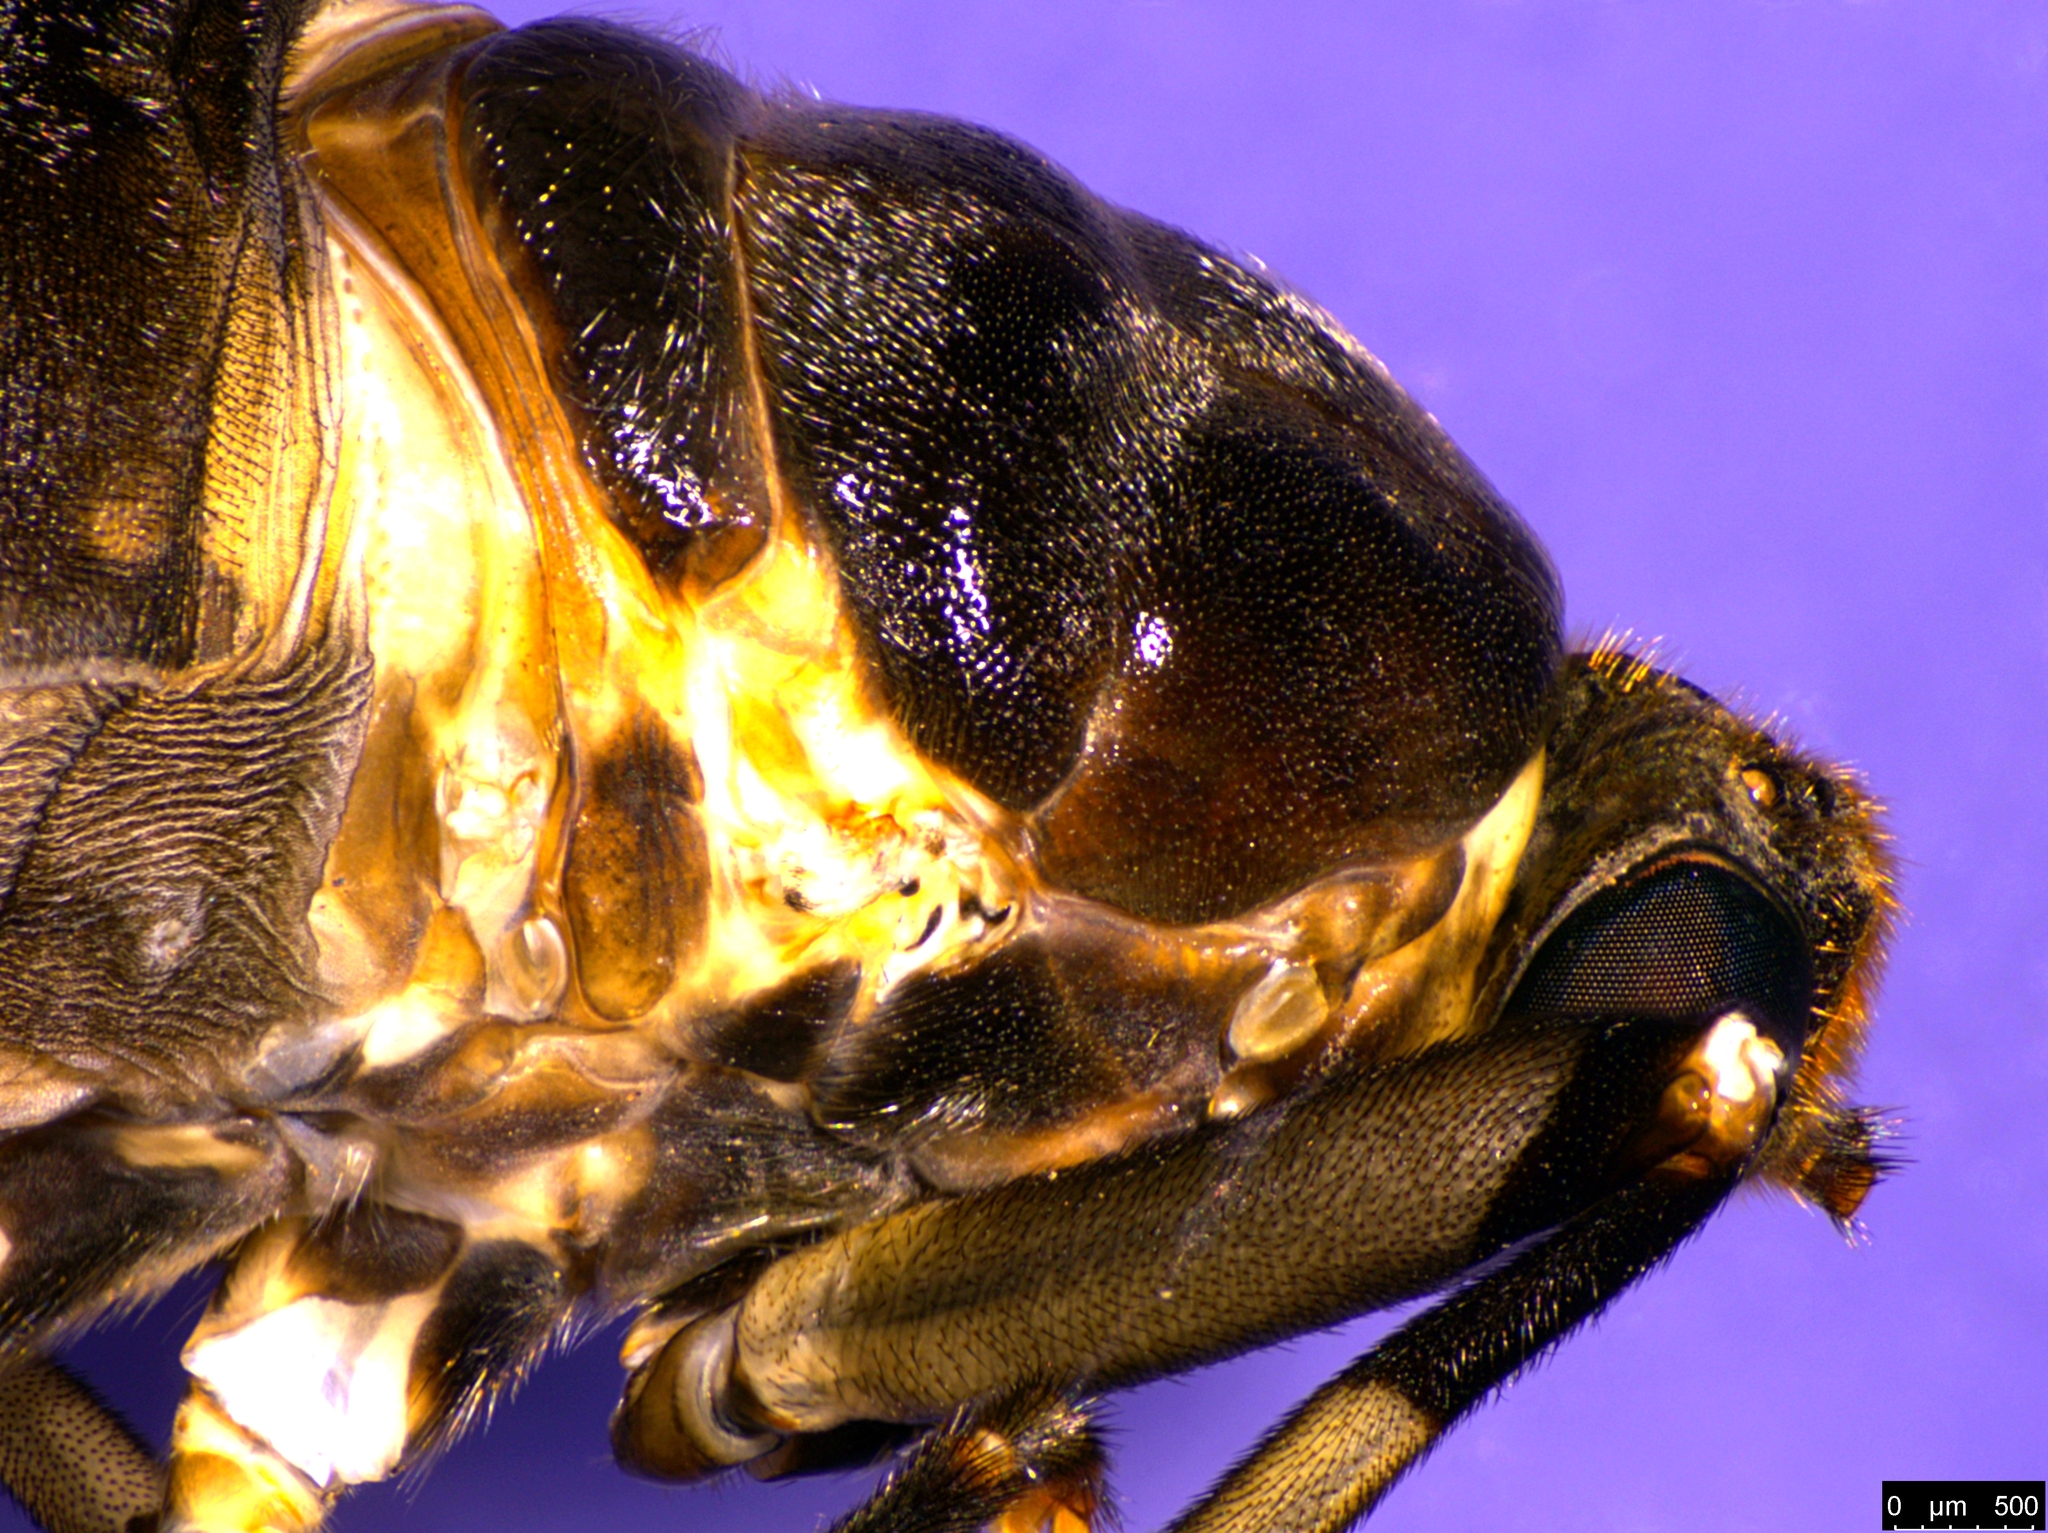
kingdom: Animalia
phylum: Arthropoda
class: Insecta
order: Diptera
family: Stratiomyidae
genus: Boreoides
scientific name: Boreoides subulatus
